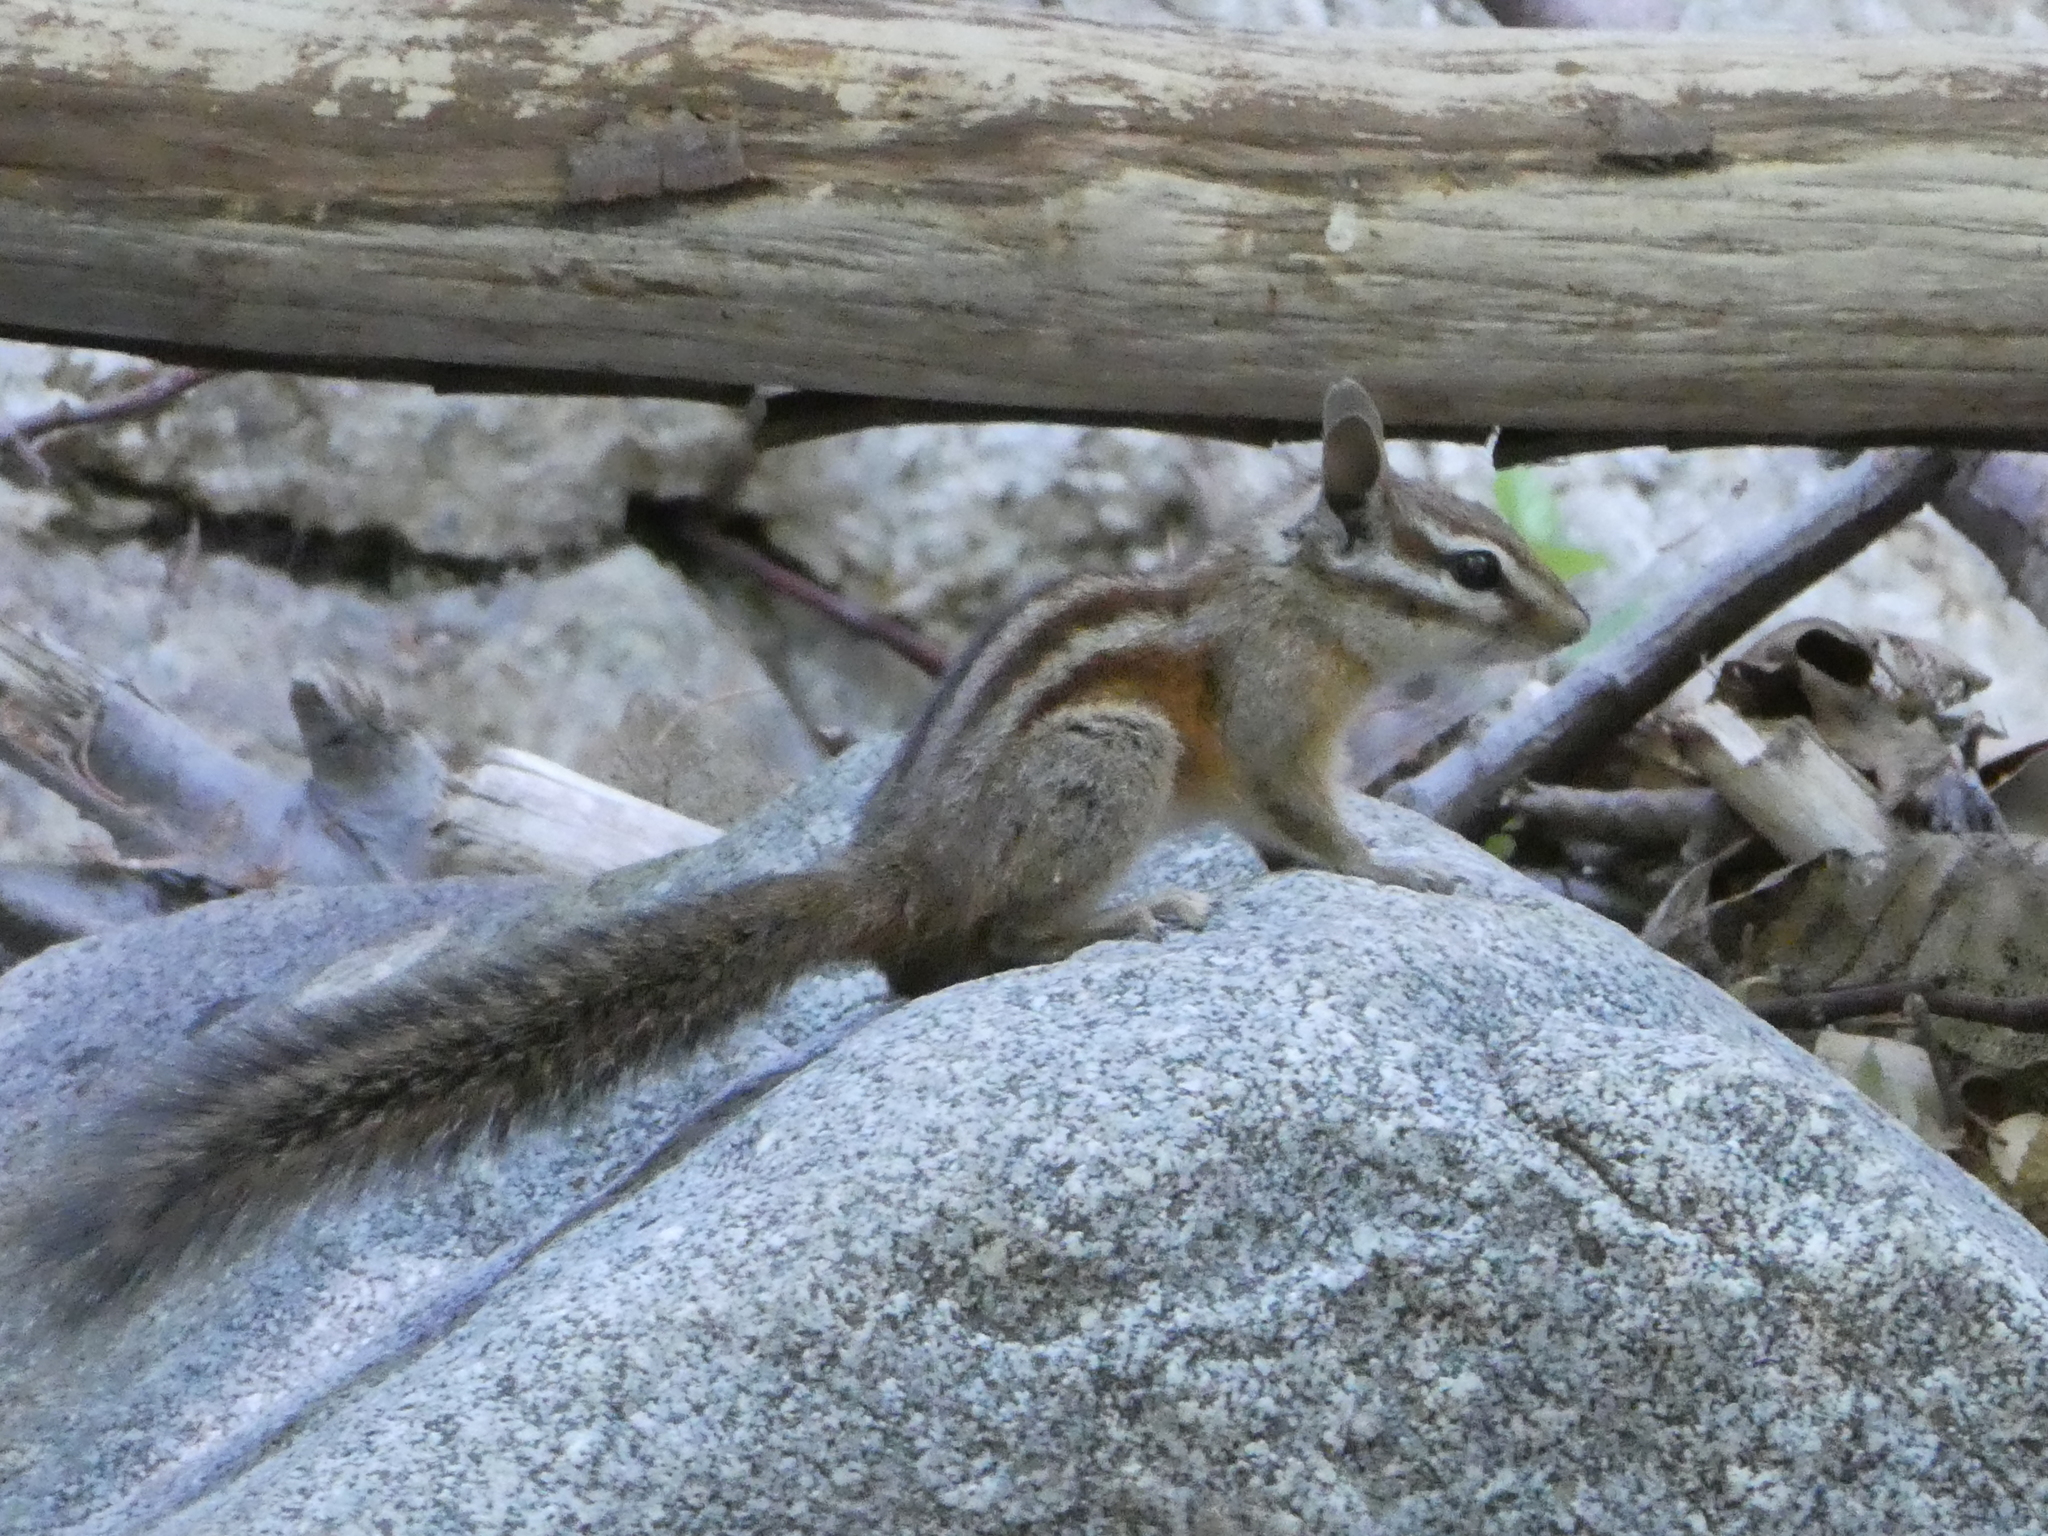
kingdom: Animalia
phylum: Chordata
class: Mammalia
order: Rodentia
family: Sciuridae
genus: Tamias
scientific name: Tamias merriami
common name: Merriam's chipmunk
